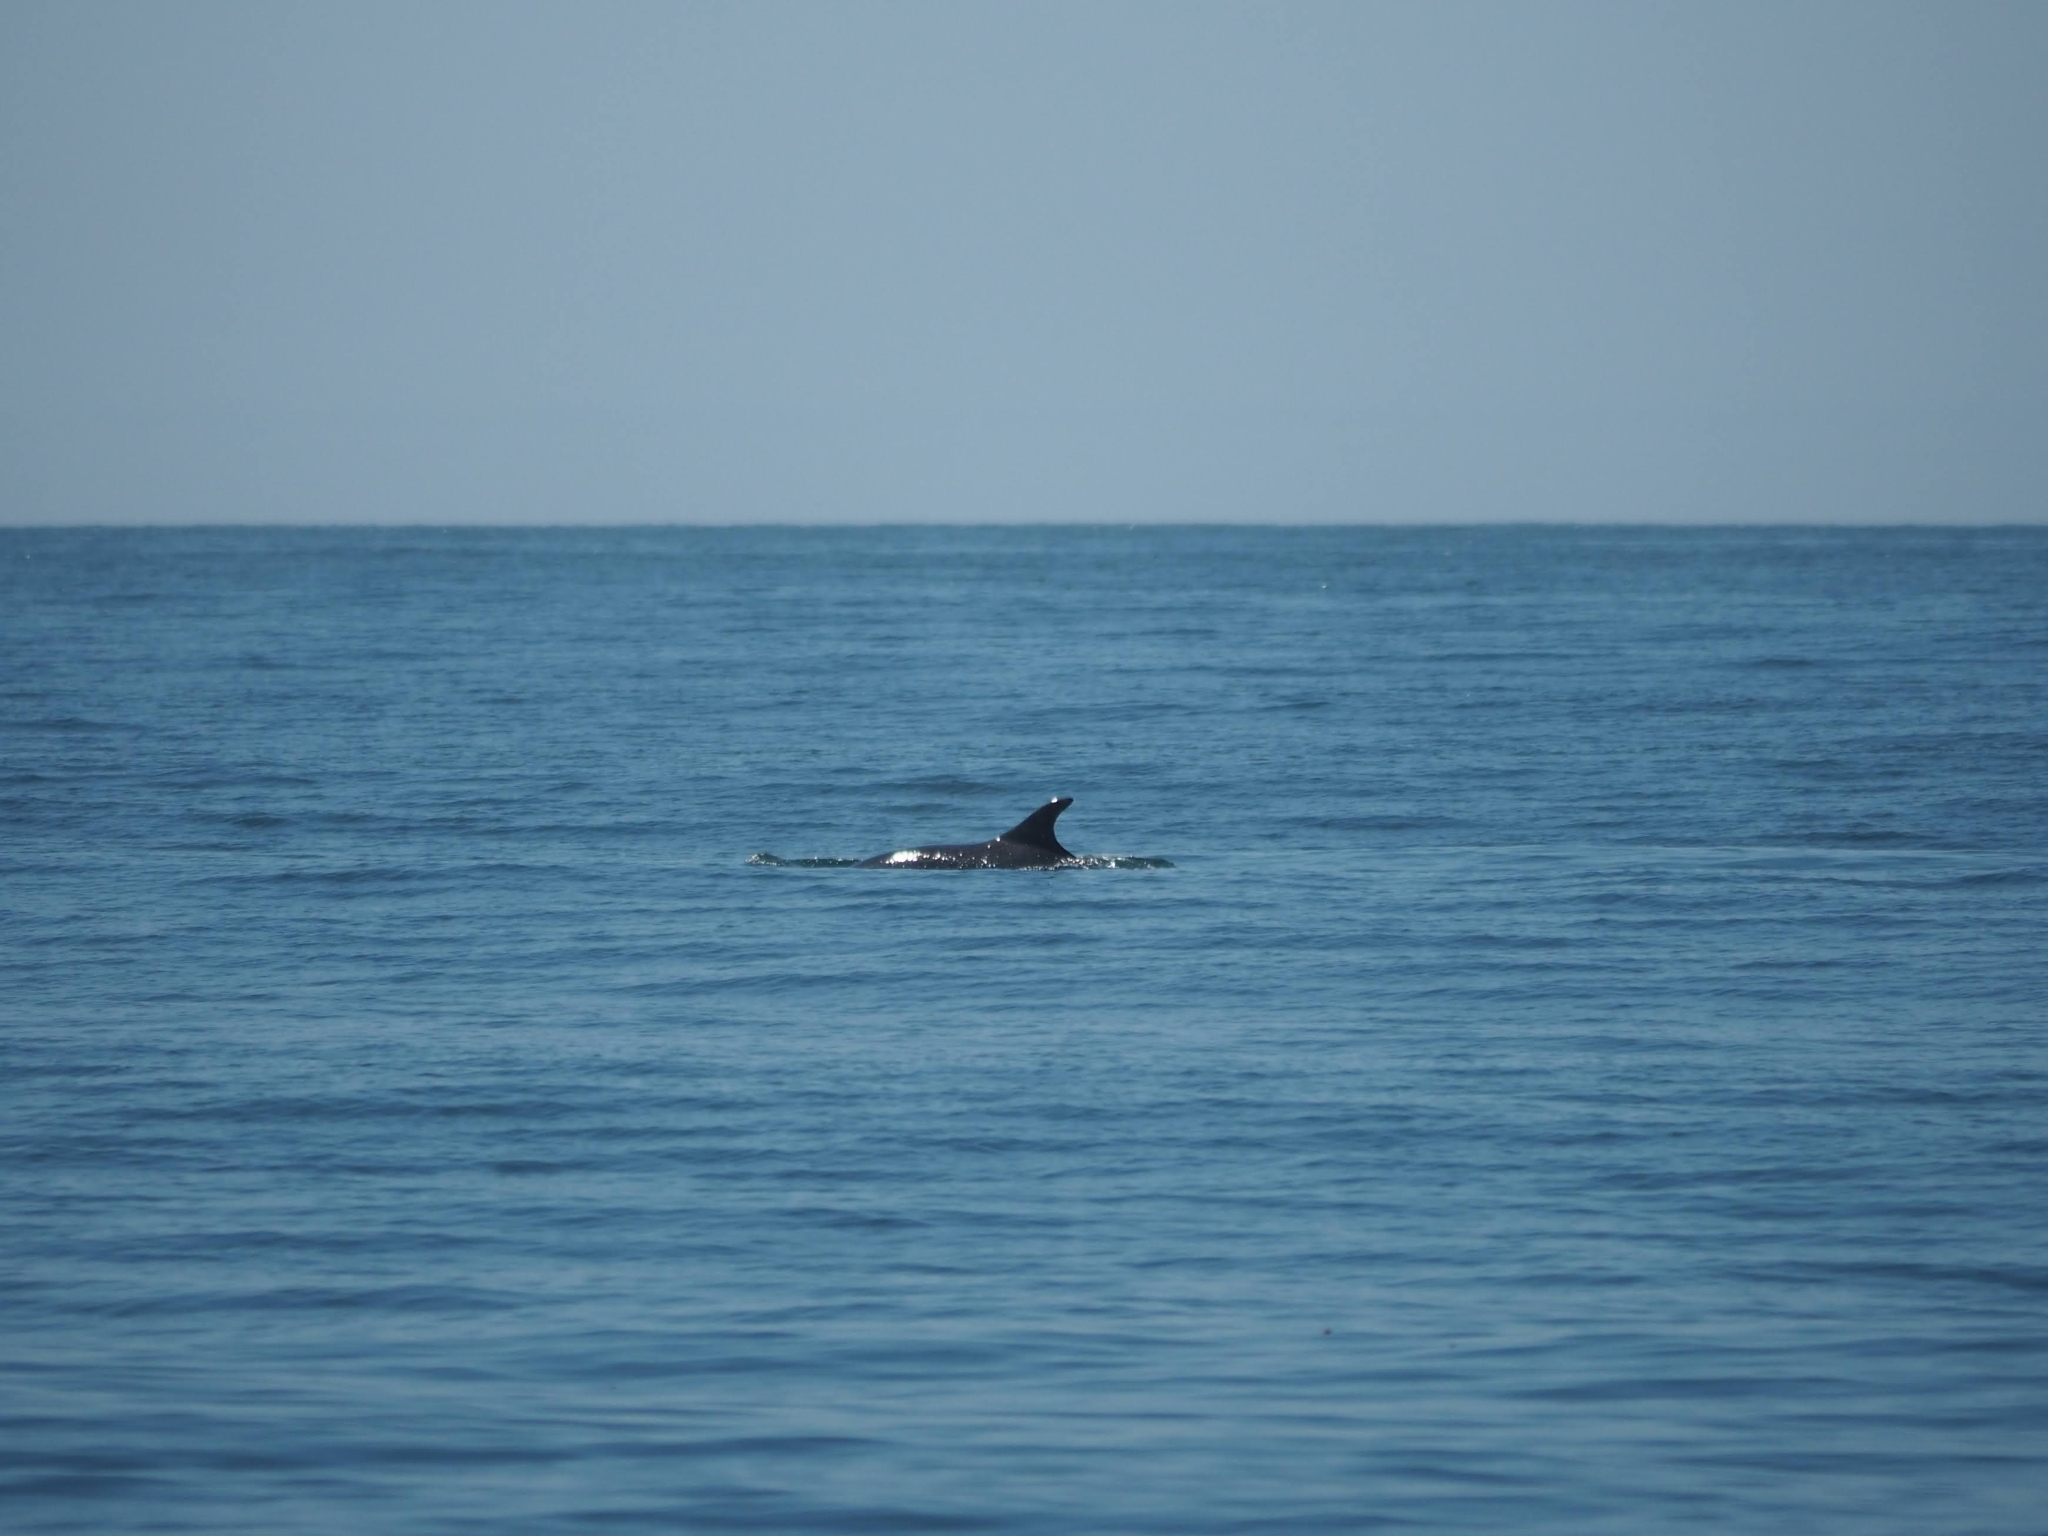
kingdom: Animalia
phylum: Chordata
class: Mammalia
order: Cetacea
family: Delphinidae
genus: Tursiops
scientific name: Tursiops truncatus
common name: Bottlenose dolphin
